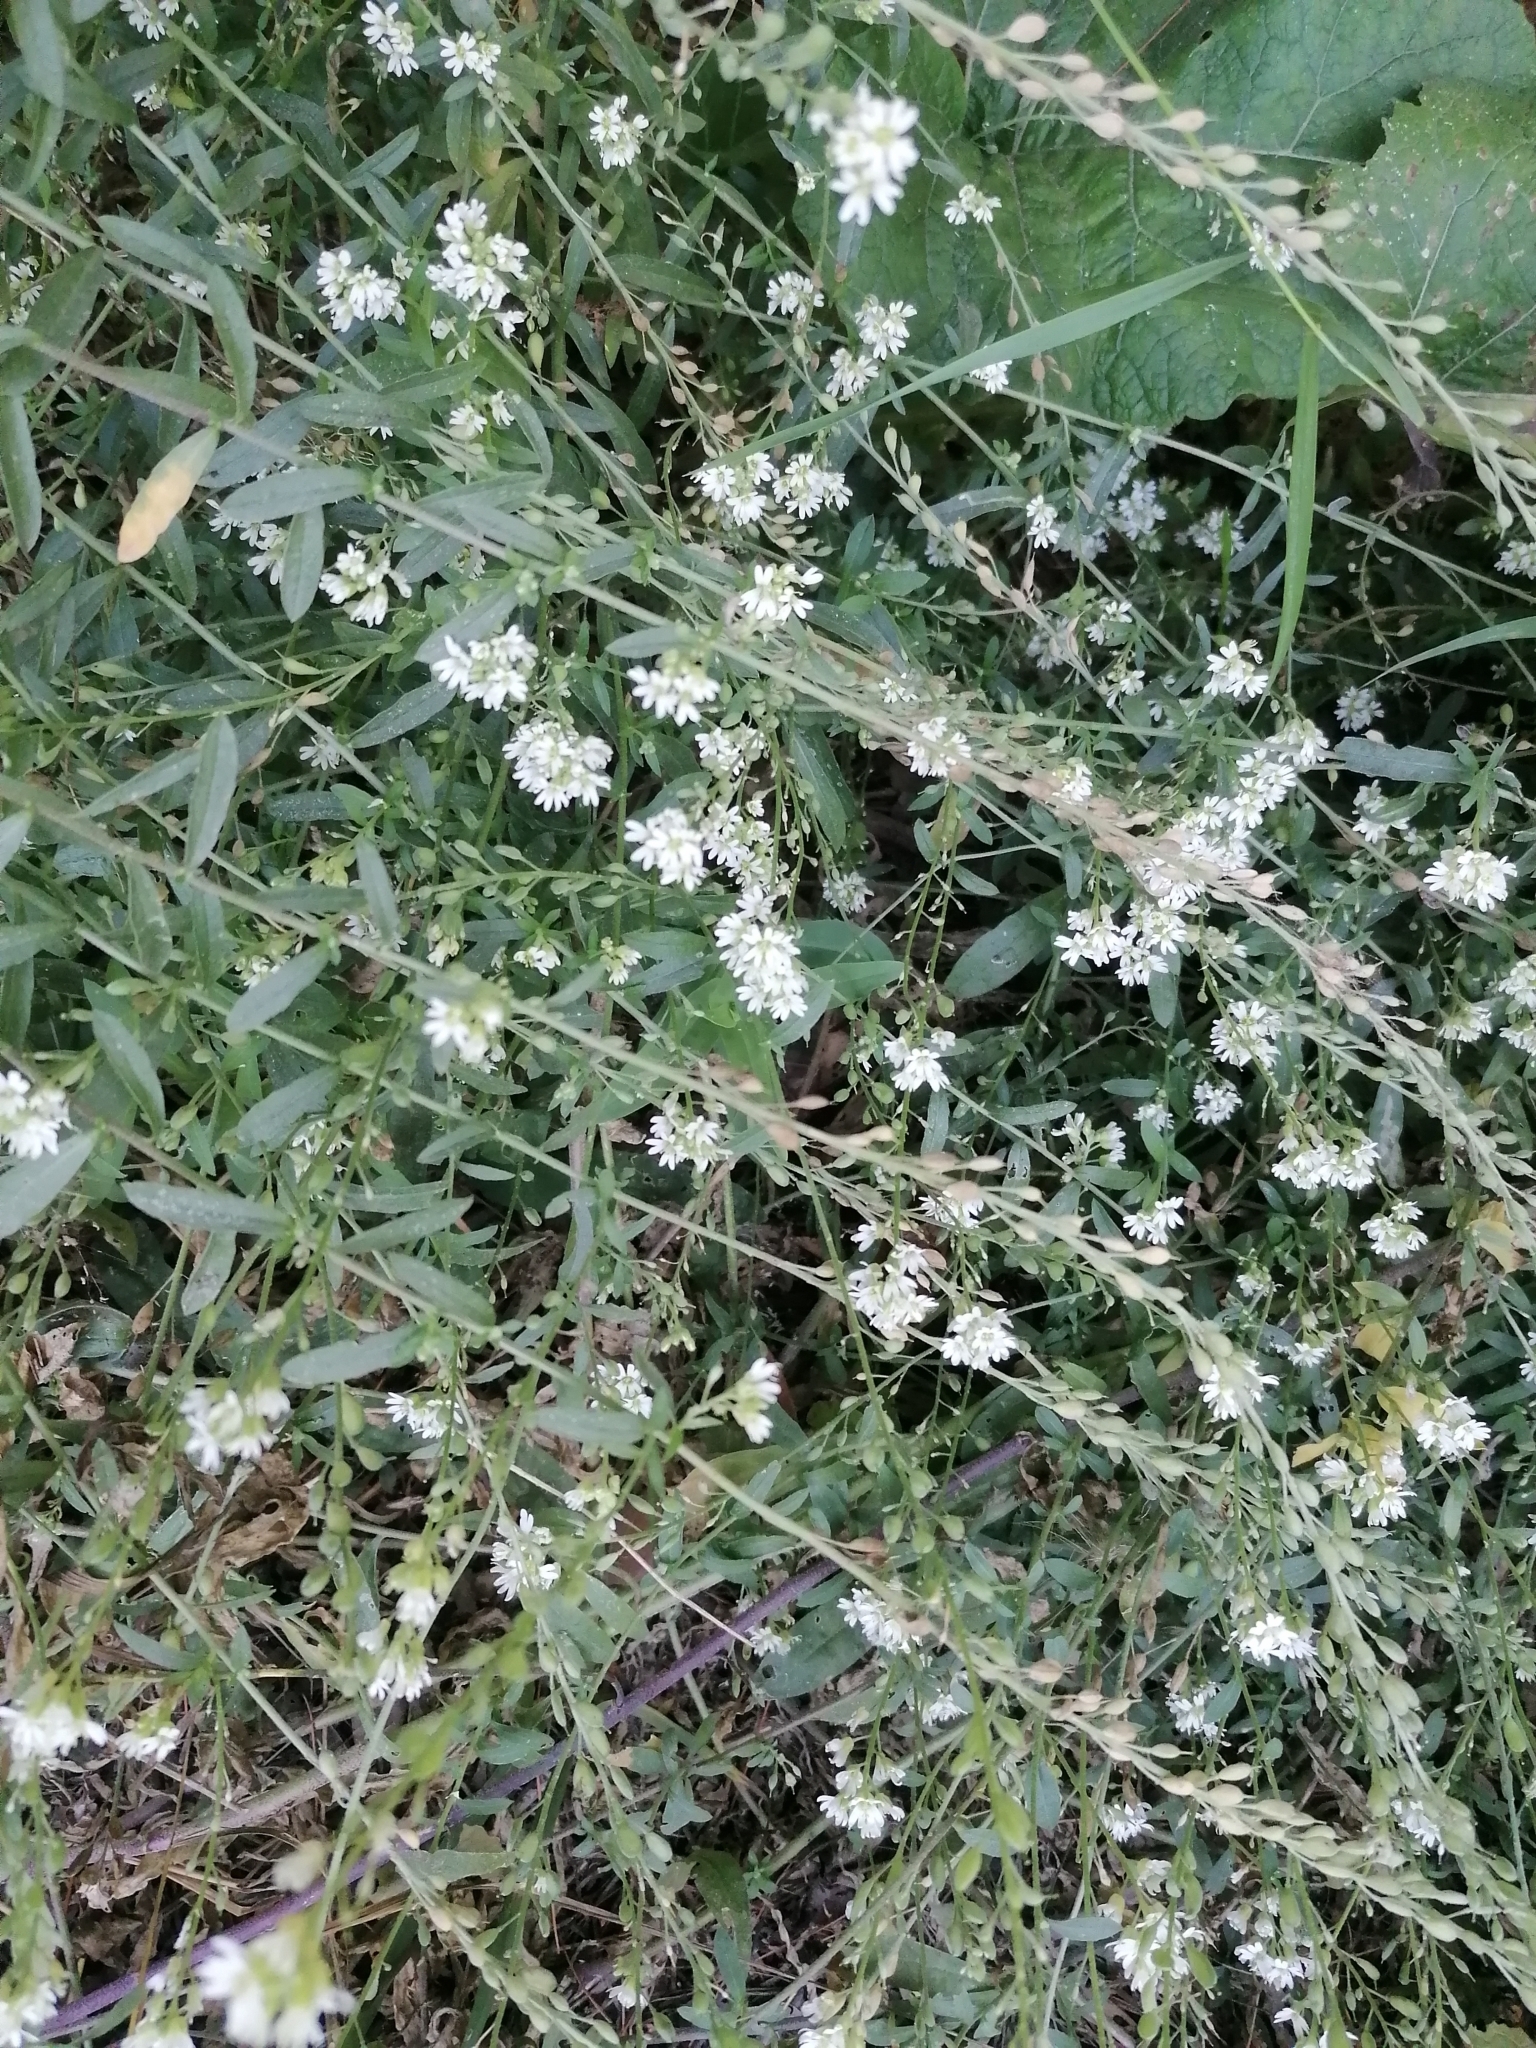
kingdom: Plantae
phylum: Tracheophyta
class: Magnoliopsida
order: Brassicales
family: Brassicaceae
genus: Berteroa
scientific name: Berteroa incana
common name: Hoary alison
